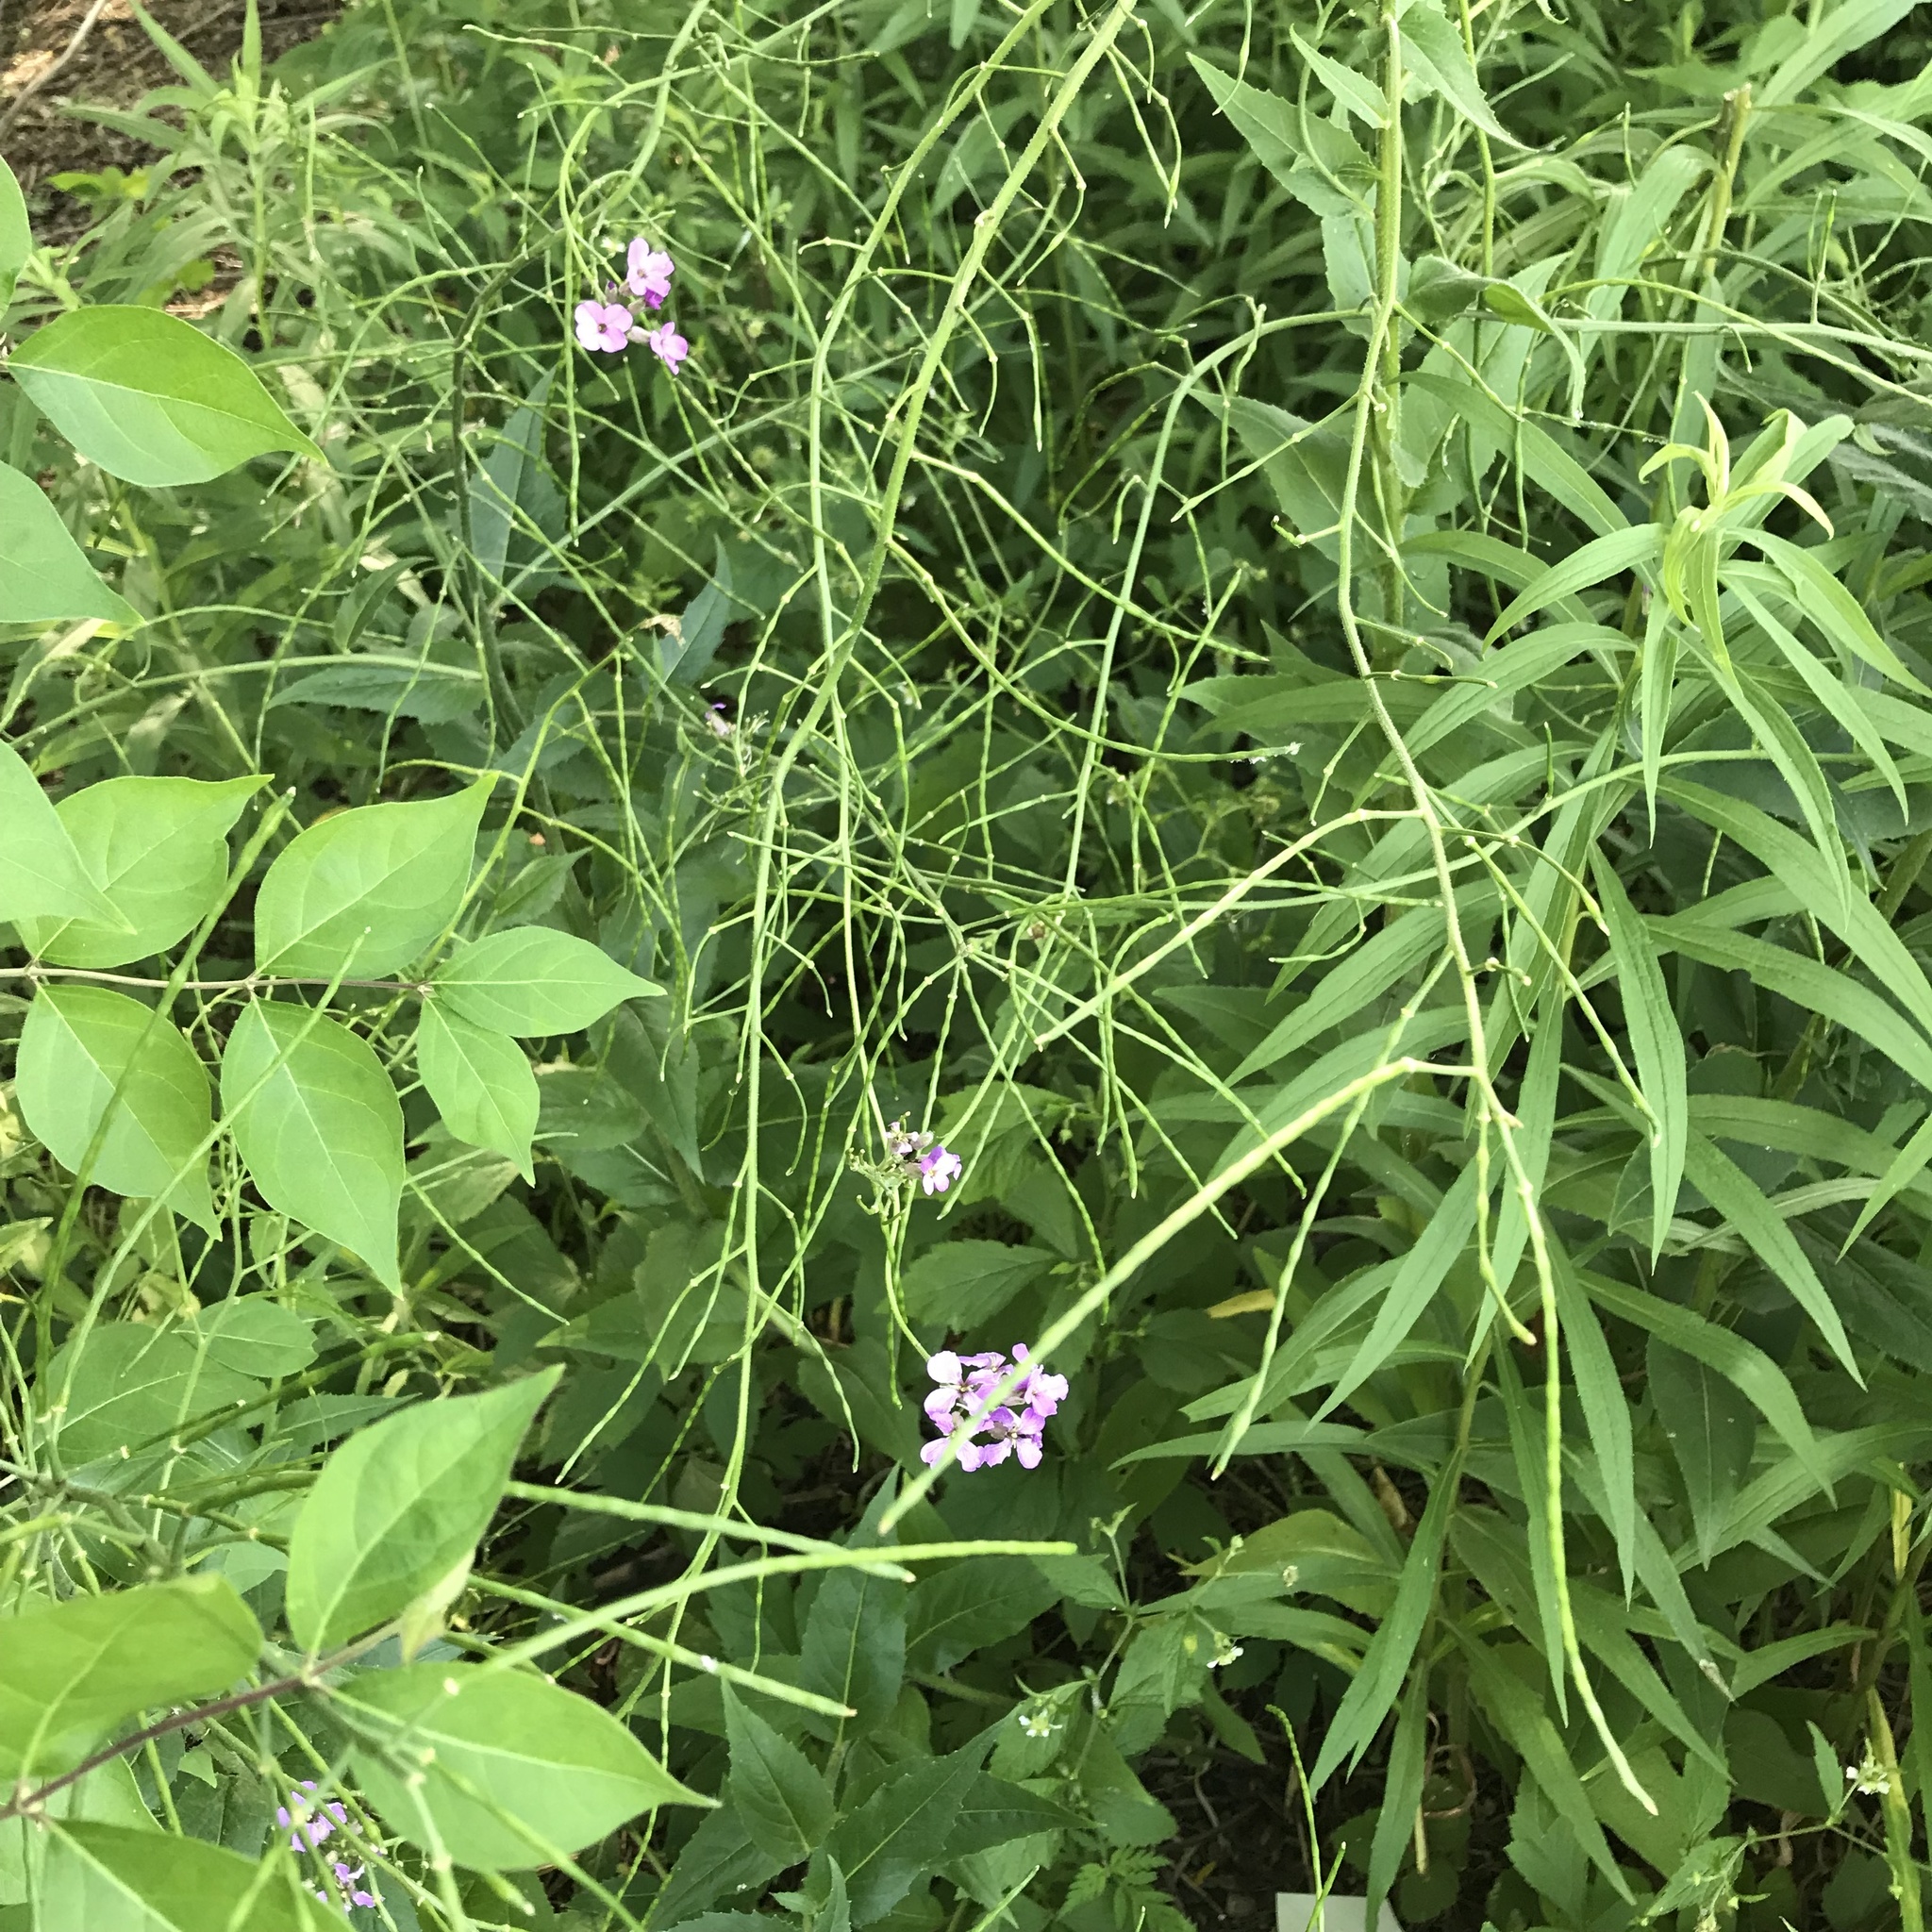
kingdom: Plantae
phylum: Tracheophyta
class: Magnoliopsida
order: Brassicales
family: Brassicaceae
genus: Hesperis
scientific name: Hesperis matronalis
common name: Dame's-violet
